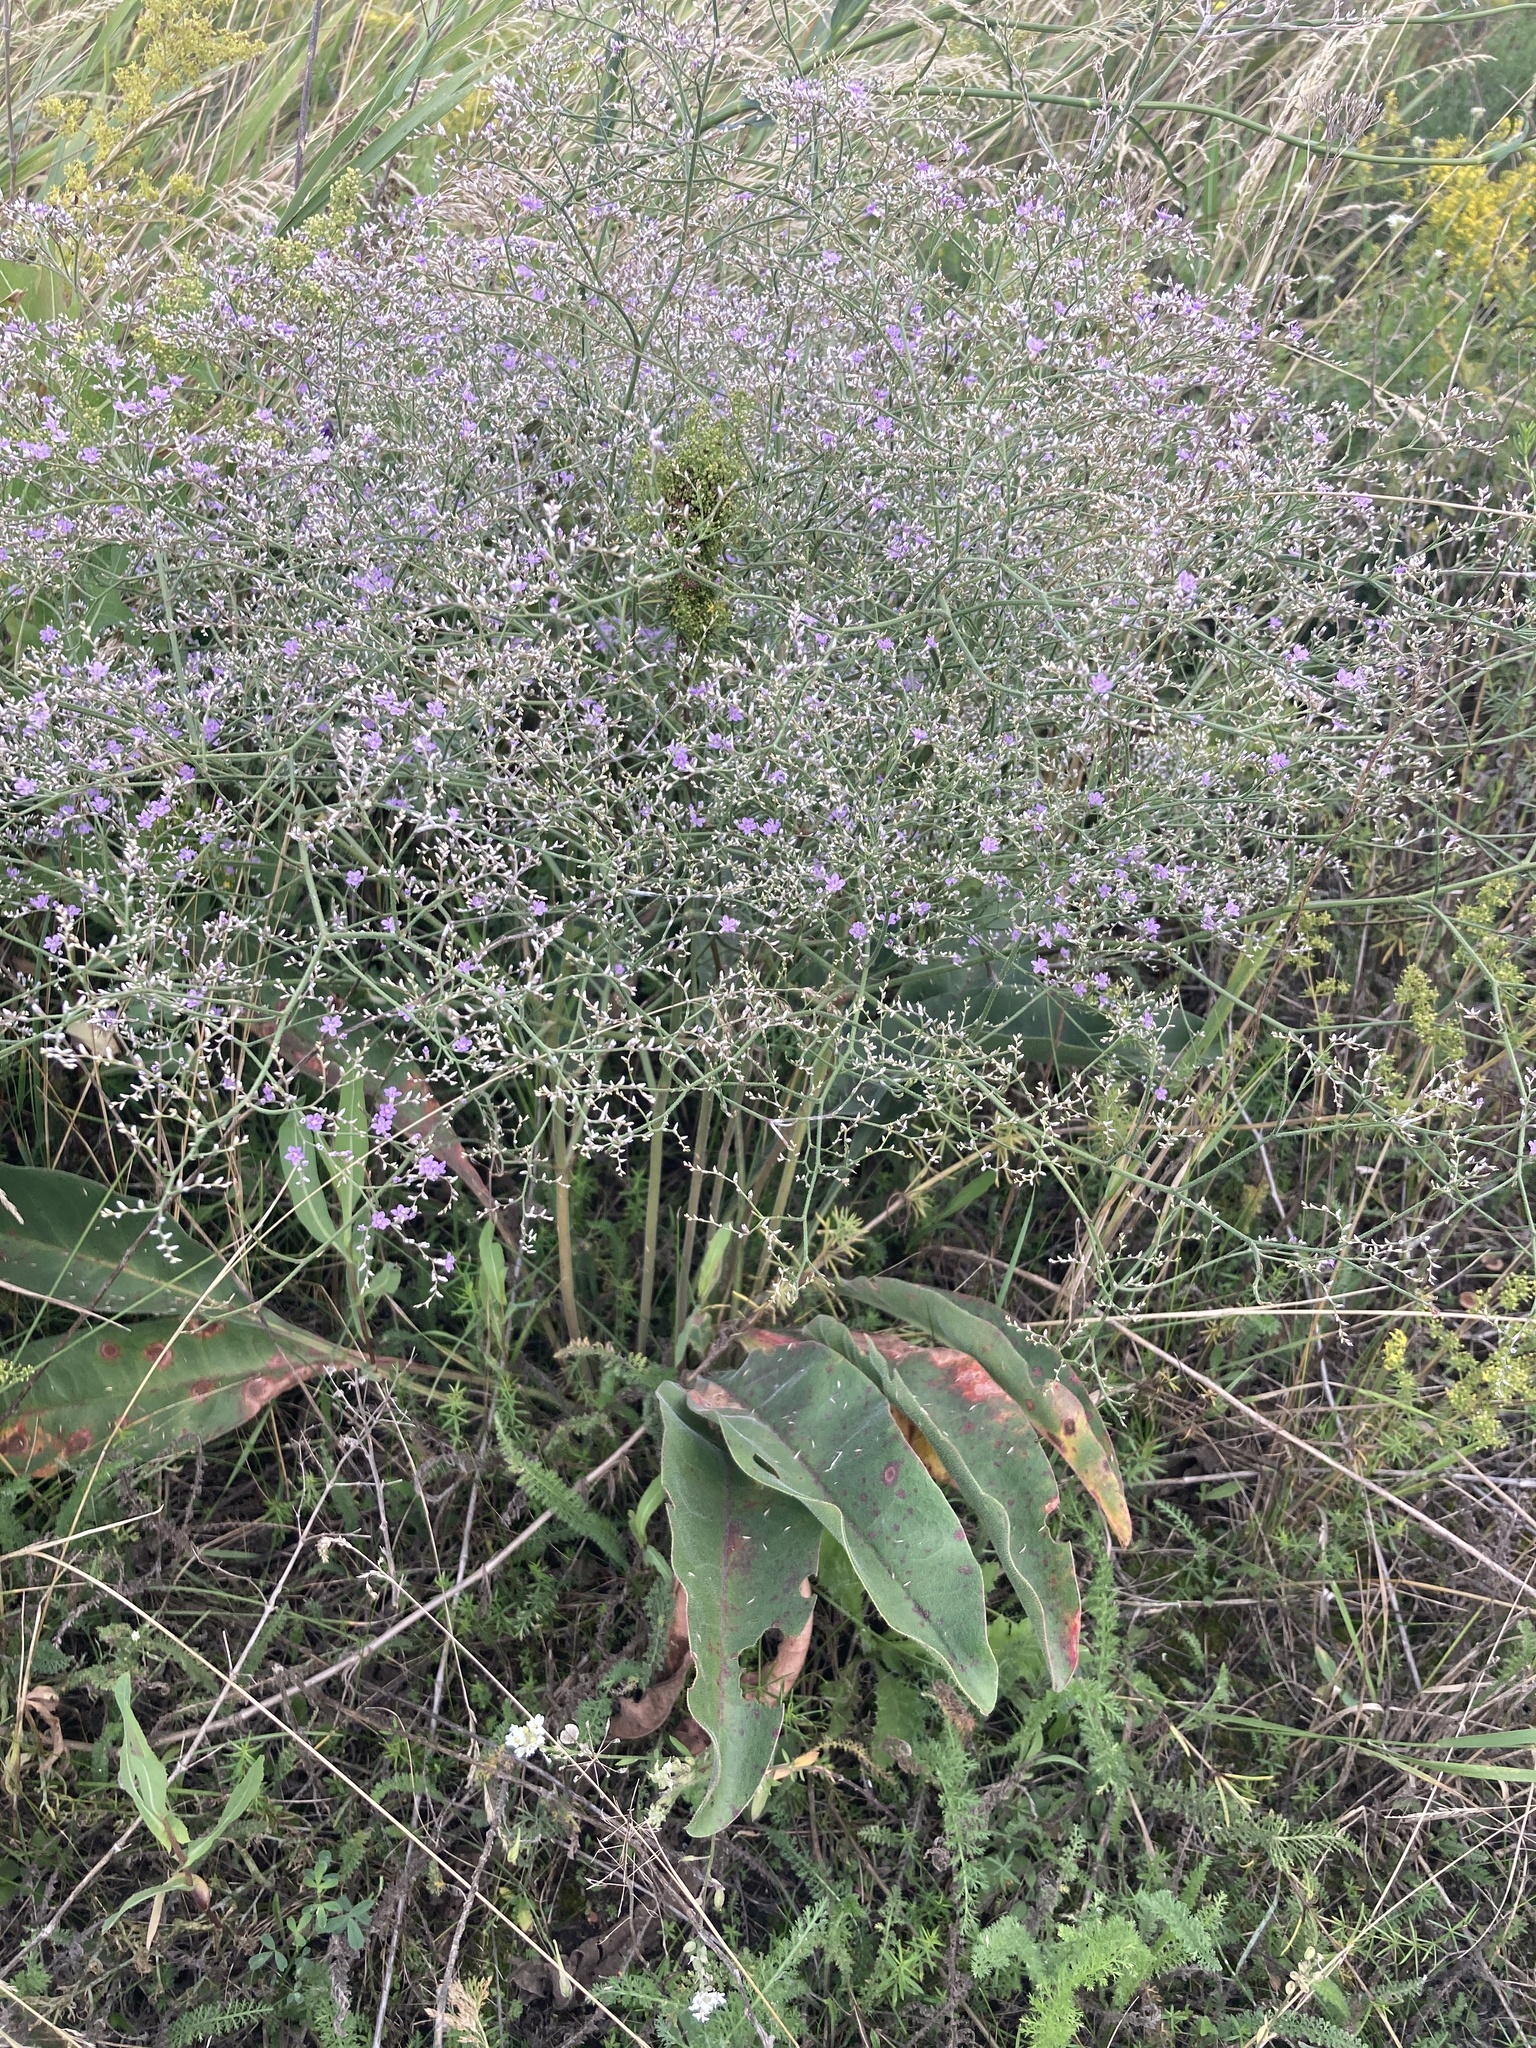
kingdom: Plantae
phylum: Tracheophyta
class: Magnoliopsida
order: Caryophyllales
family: Plumbaginaceae
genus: Limonium
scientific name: Limonium platyphyllum
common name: Florist's sea lavender
